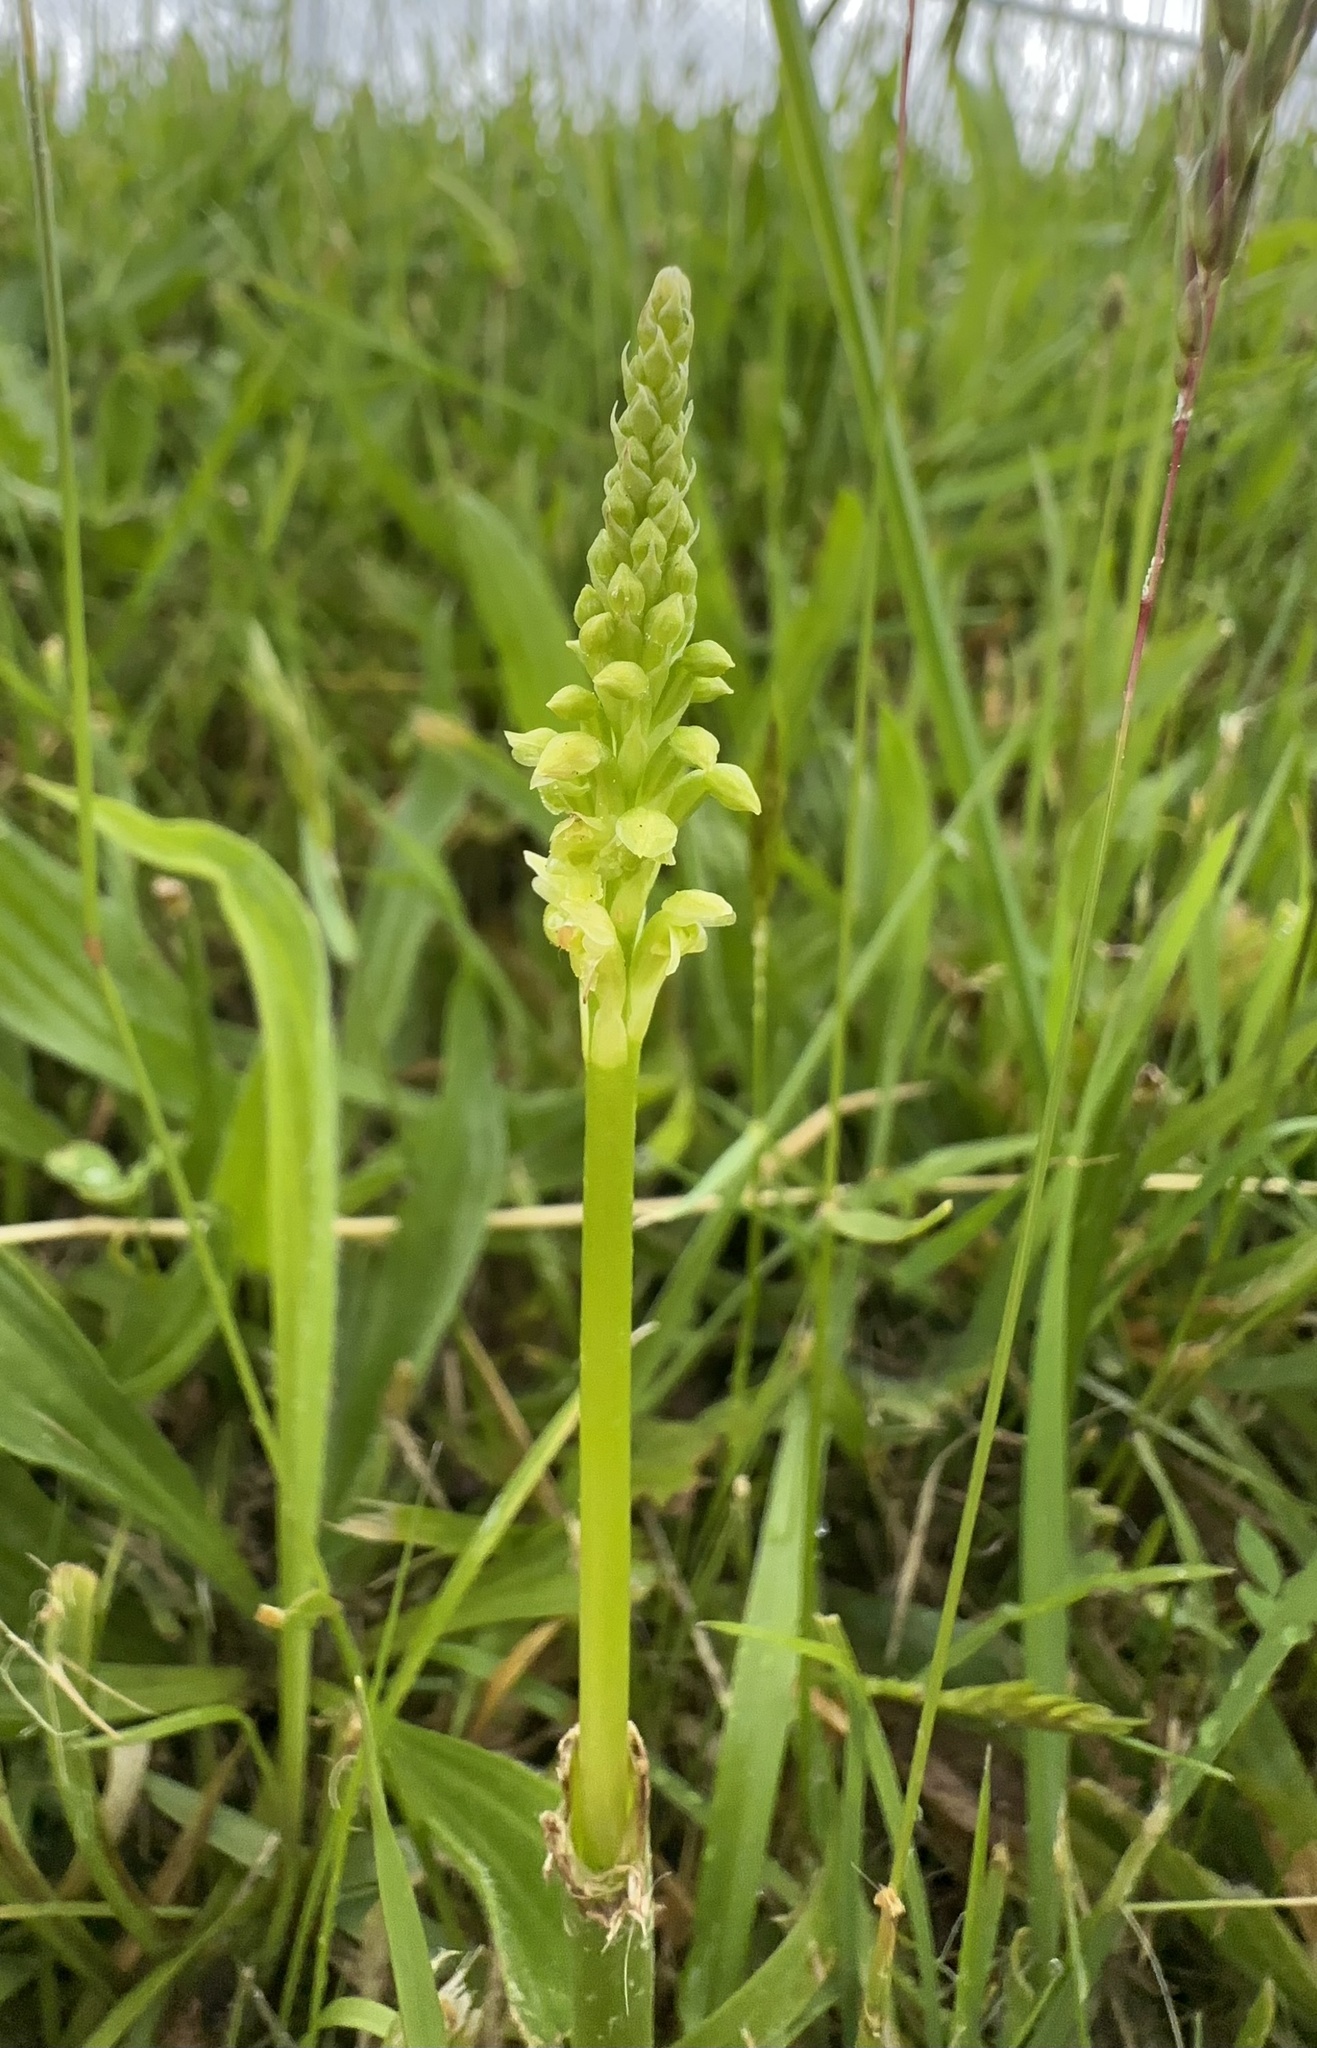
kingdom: Plantae
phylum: Tracheophyta
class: Liliopsida
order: Asparagales
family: Orchidaceae
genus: Microtis
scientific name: Microtis unifolia
